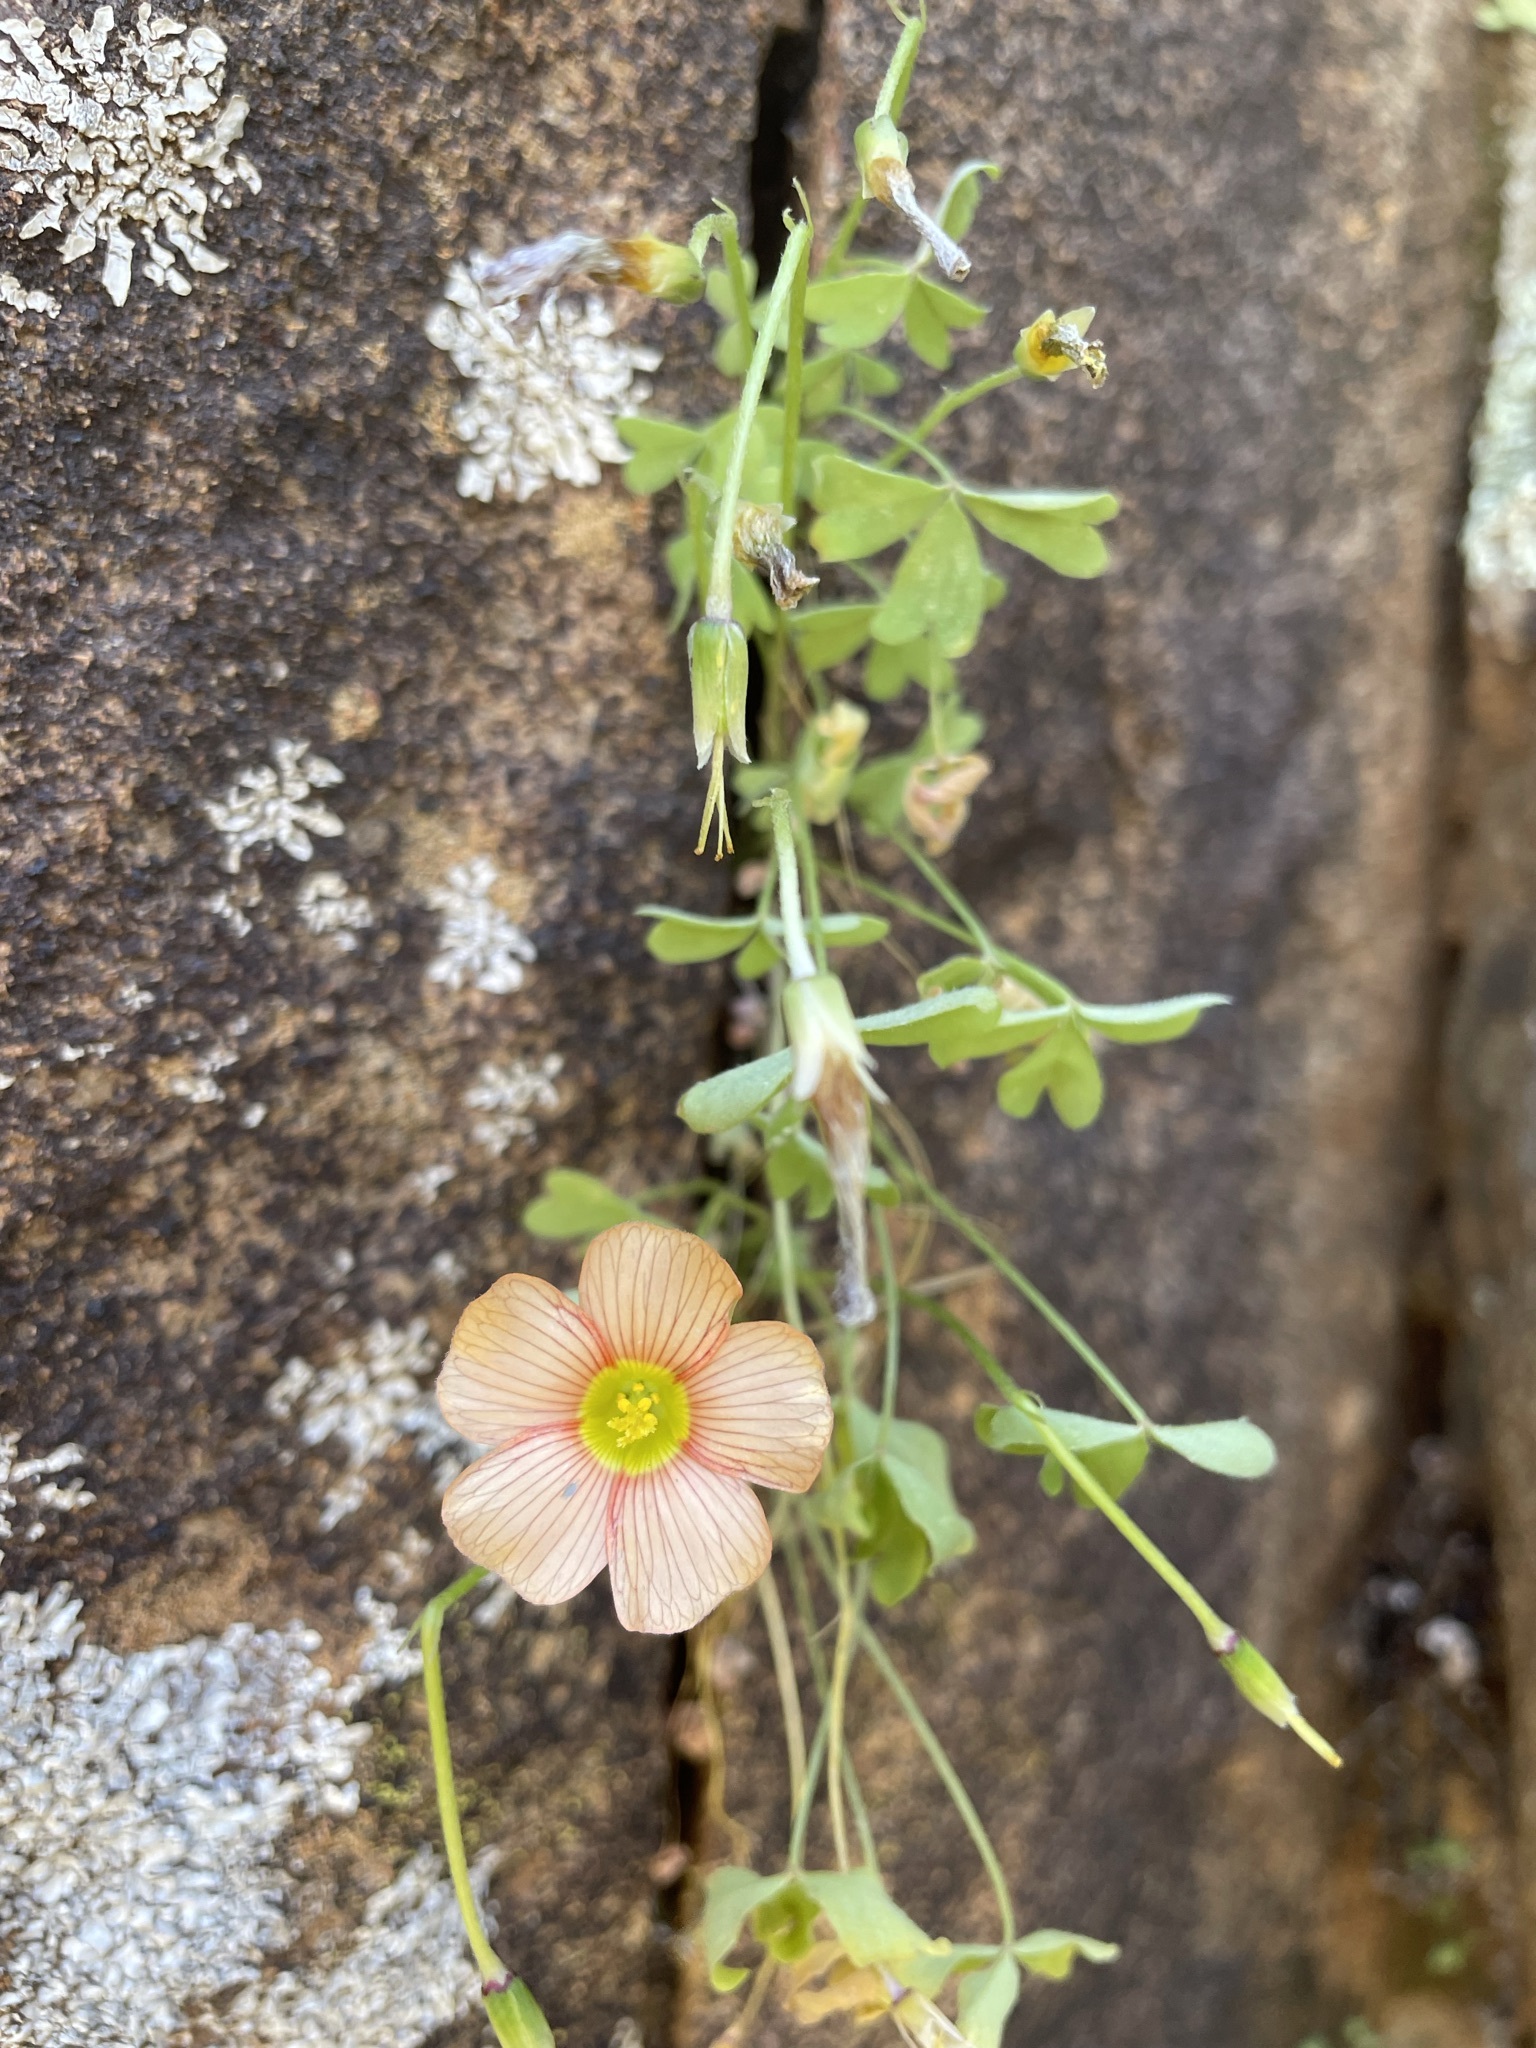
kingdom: Plantae
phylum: Tracheophyta
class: Magnoliopsida
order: Oxalidales
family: Oxalidaceae
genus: Oxalis
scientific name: Oxalis obtusa
